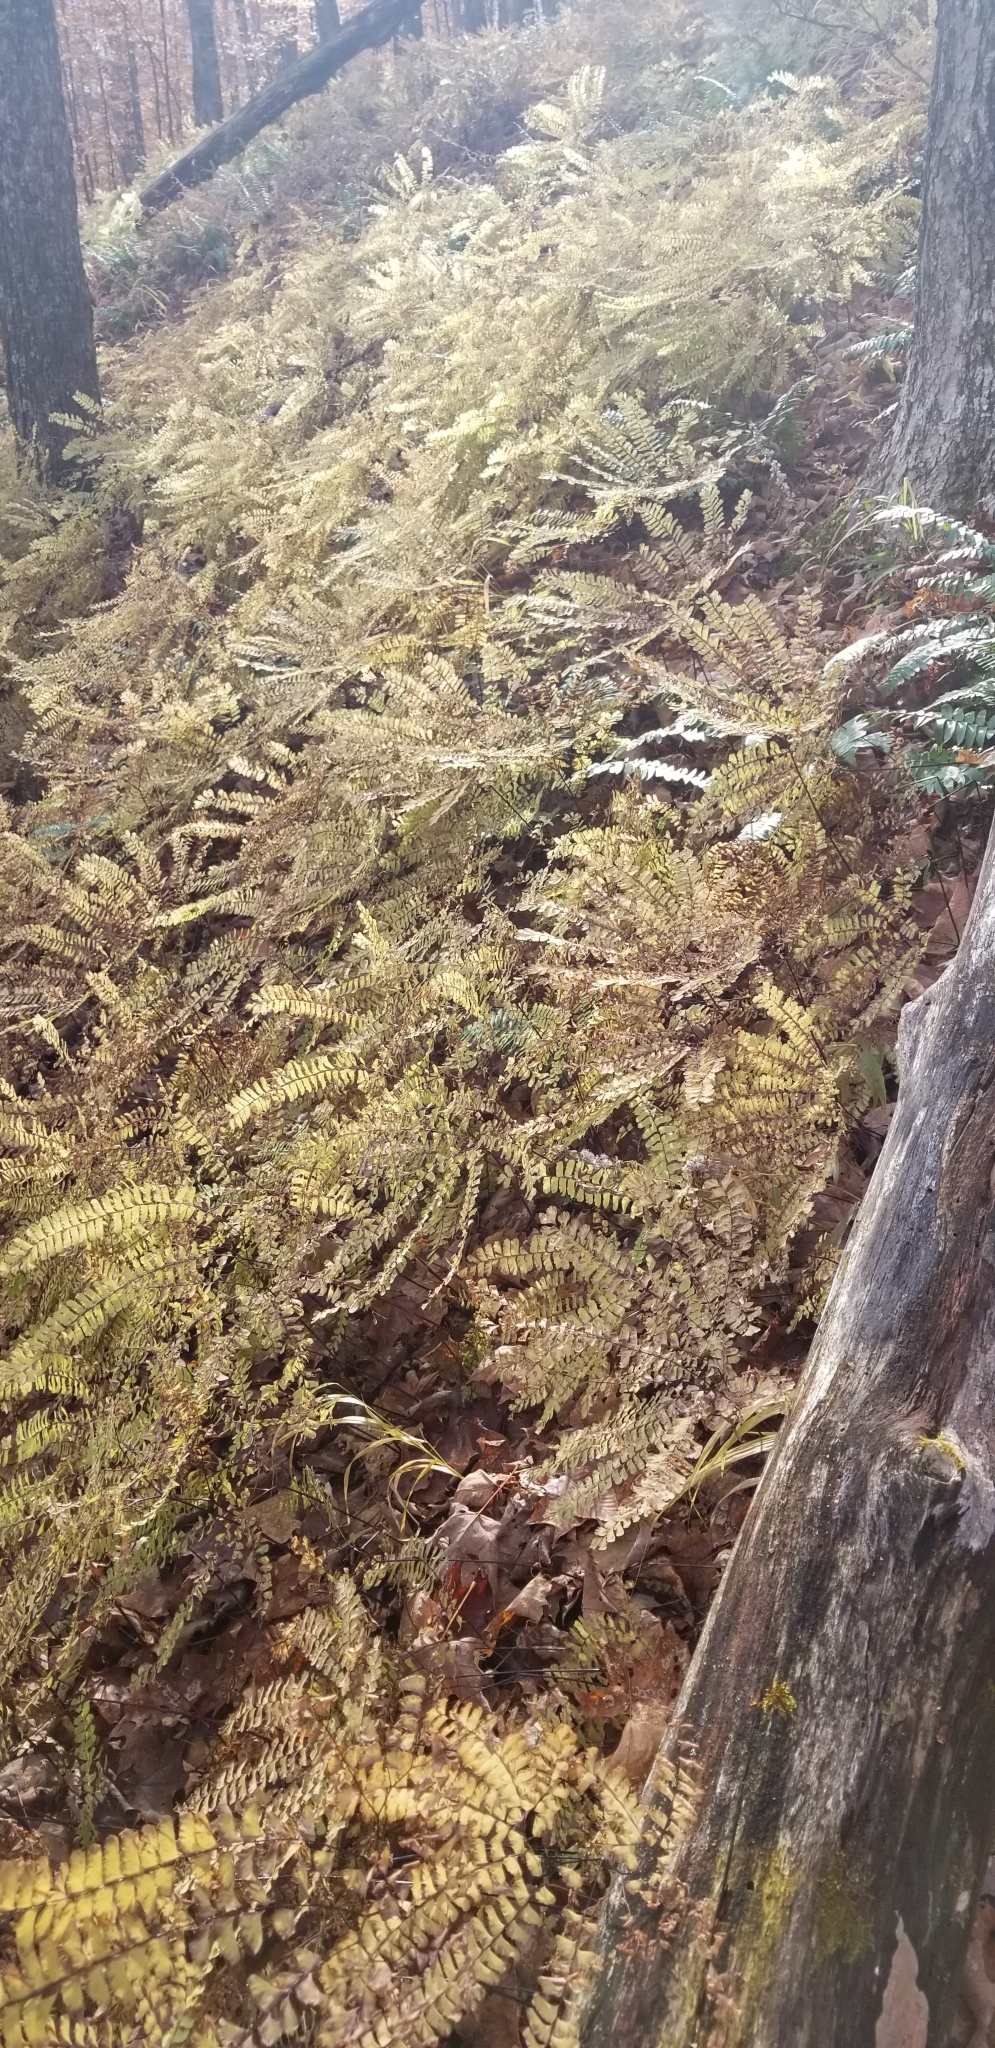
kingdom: Plantae
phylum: Tracheophyta
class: Polypodiopsida
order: Polypodiales
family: Pteridaceae
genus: Adiantum
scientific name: Adiantum pedatum
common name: Five-finger fern
